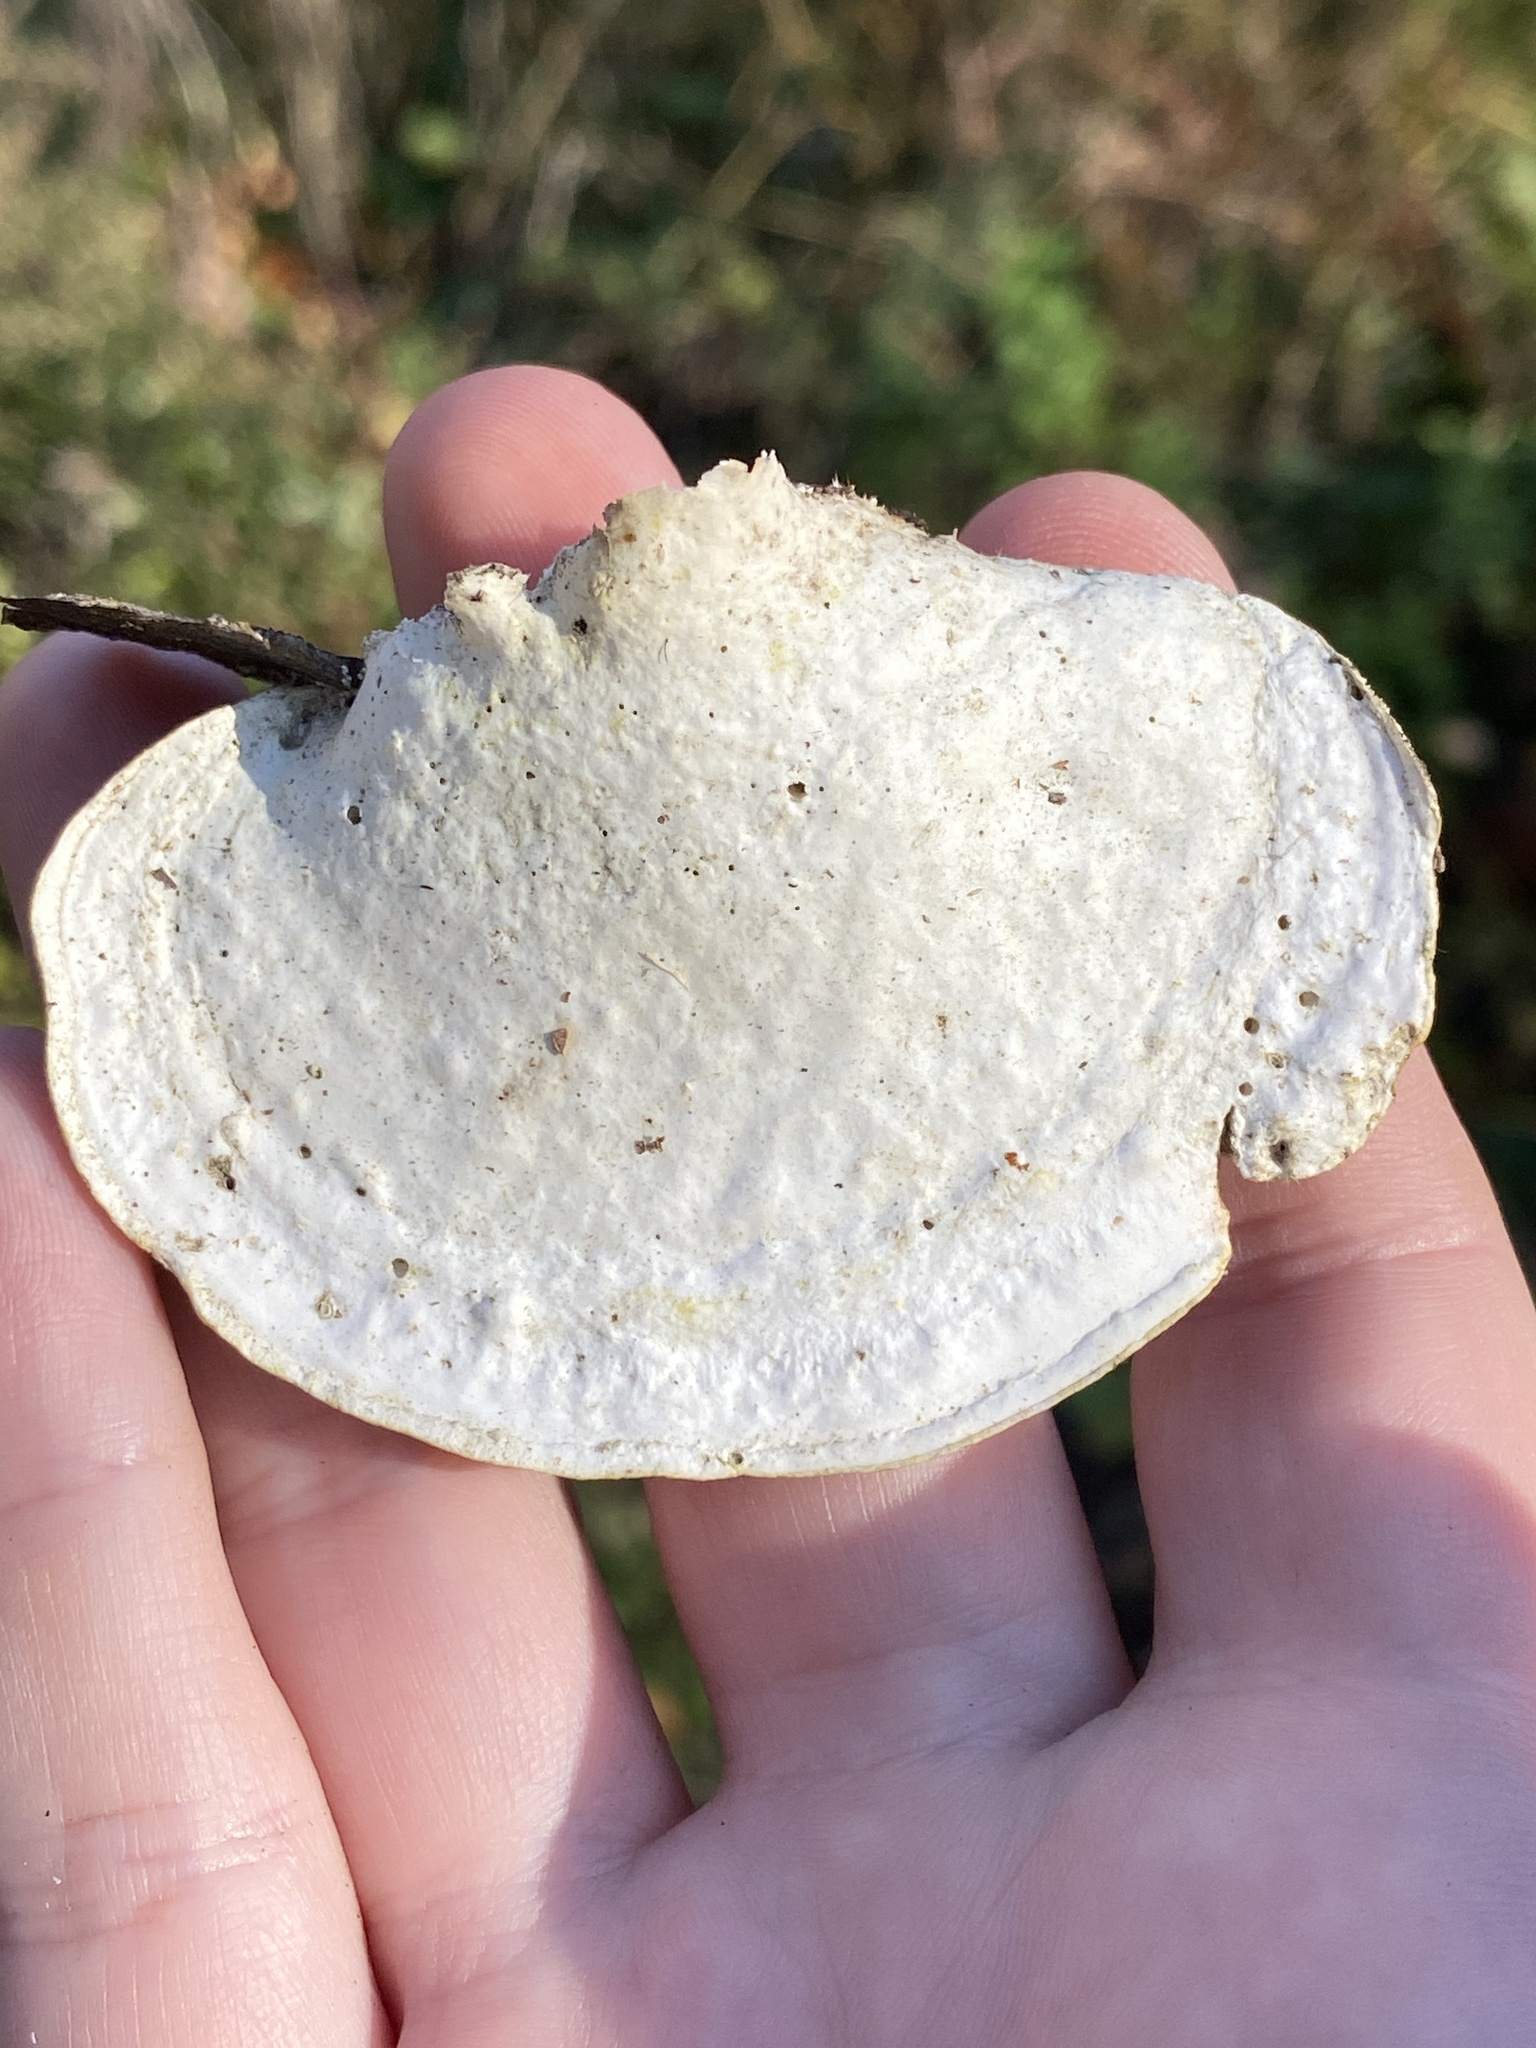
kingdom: Fungi
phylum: Basidiomycota
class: Agaricomycetes
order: Polyporales
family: Polyporaceae
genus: Trametes
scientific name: Trametes elegans
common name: White maze polypore
